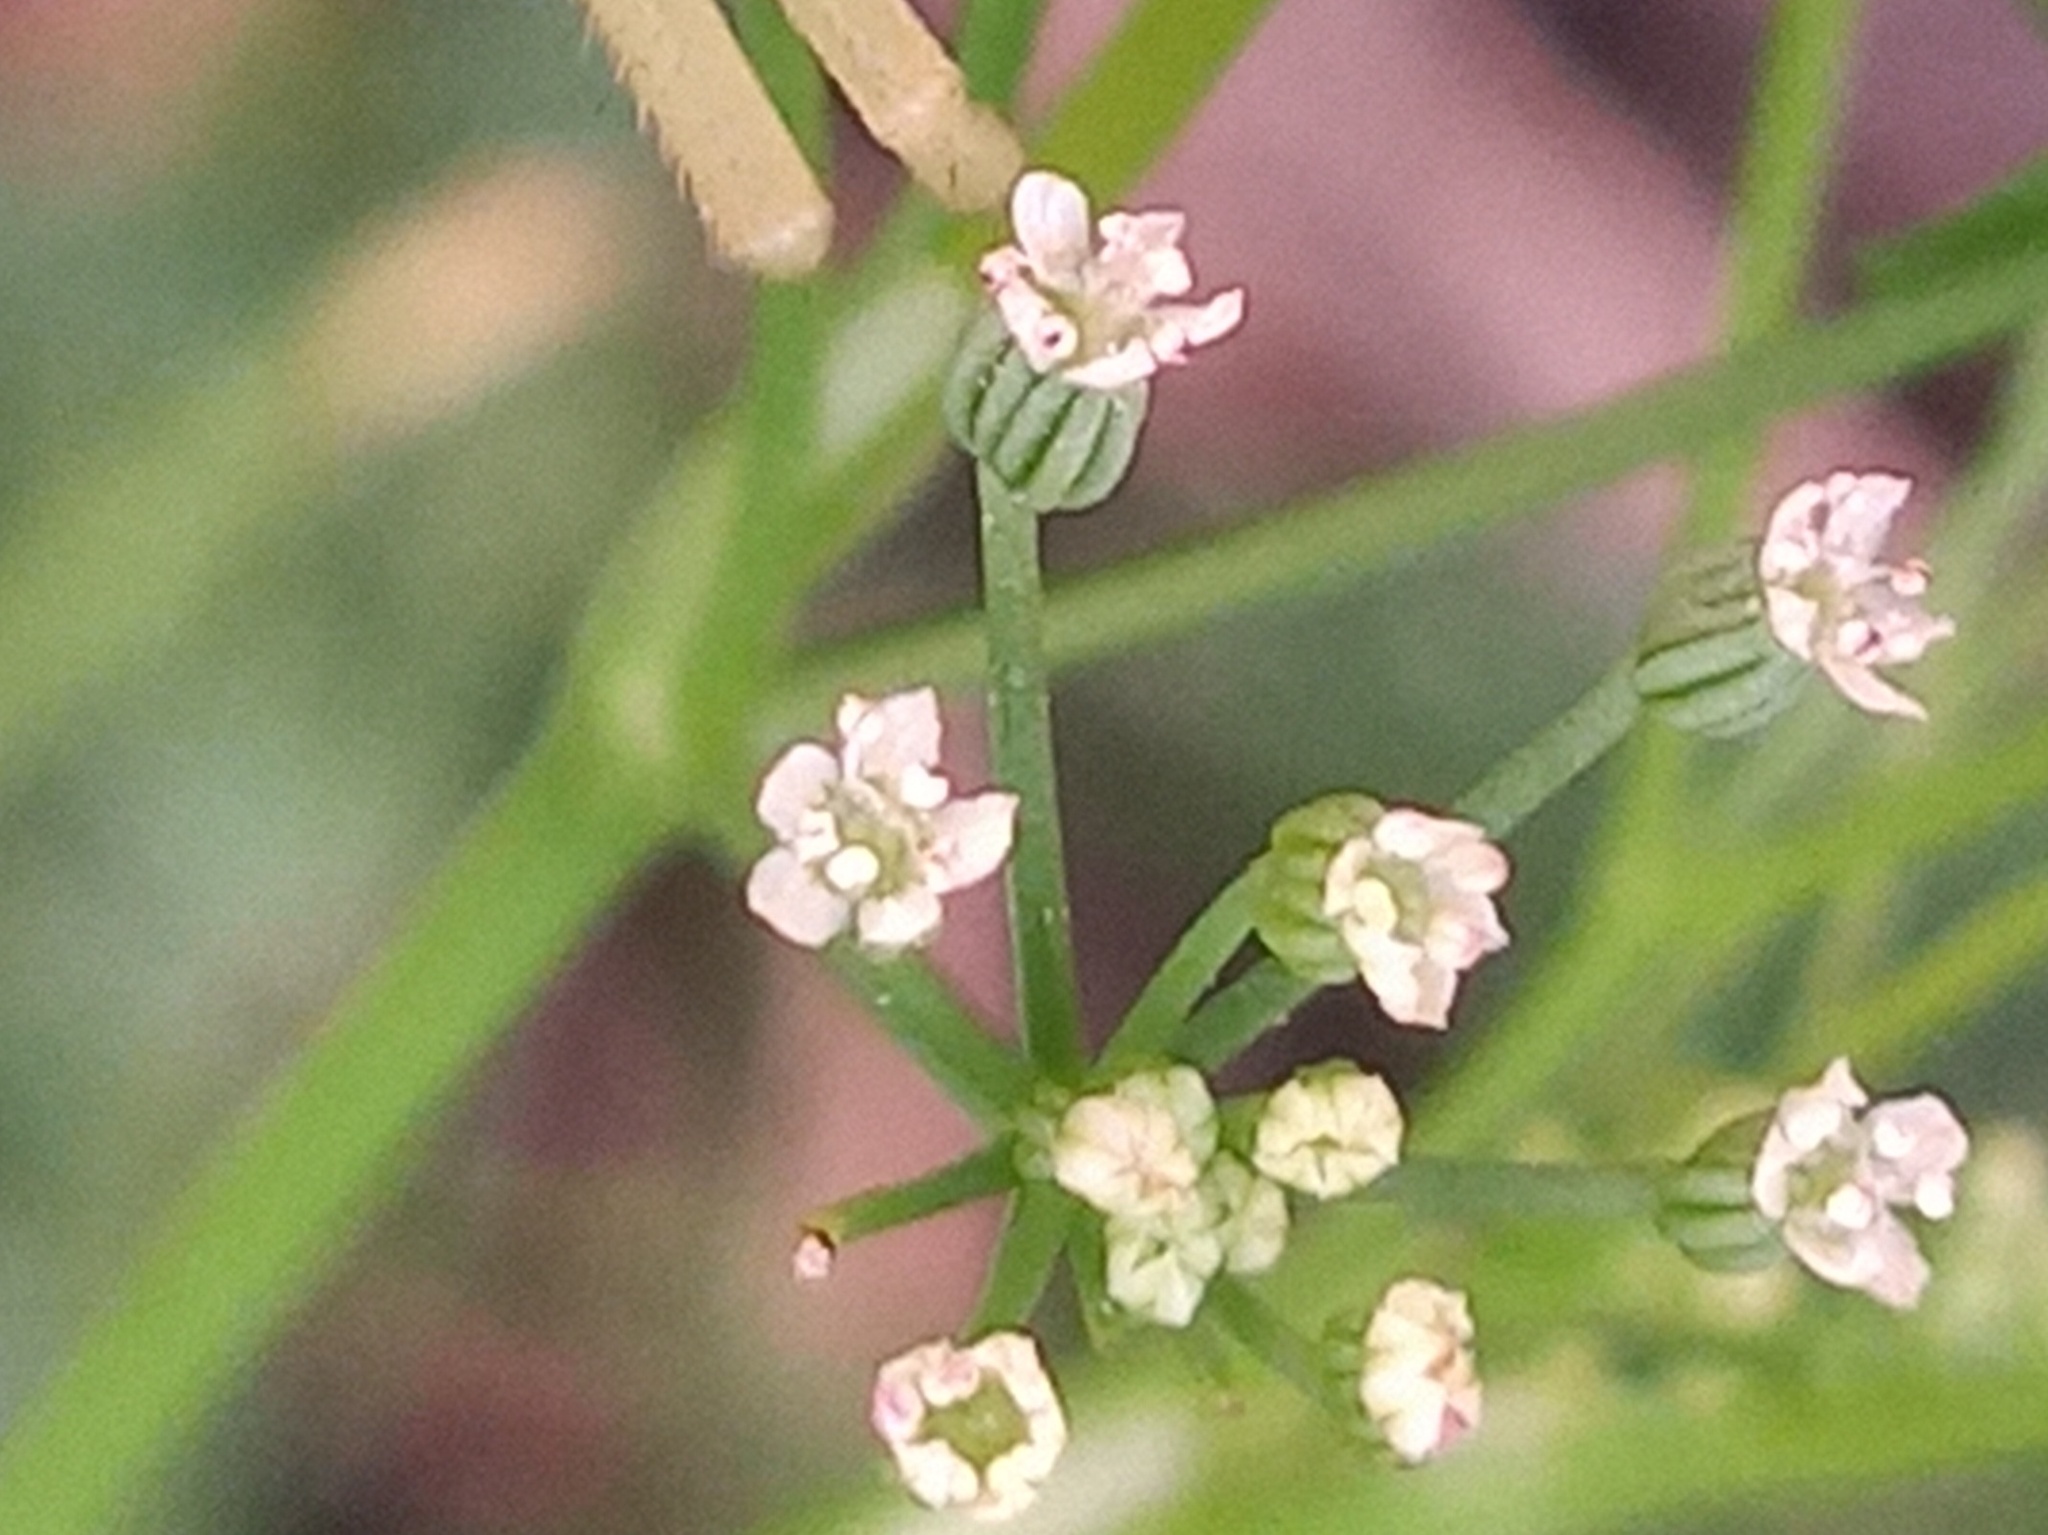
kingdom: Plantae
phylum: Tracheophyta
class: Magnoliopsida
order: Apiales
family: Apiaceae
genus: Cyclospermum
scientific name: Cyclospermum leptophyllum
